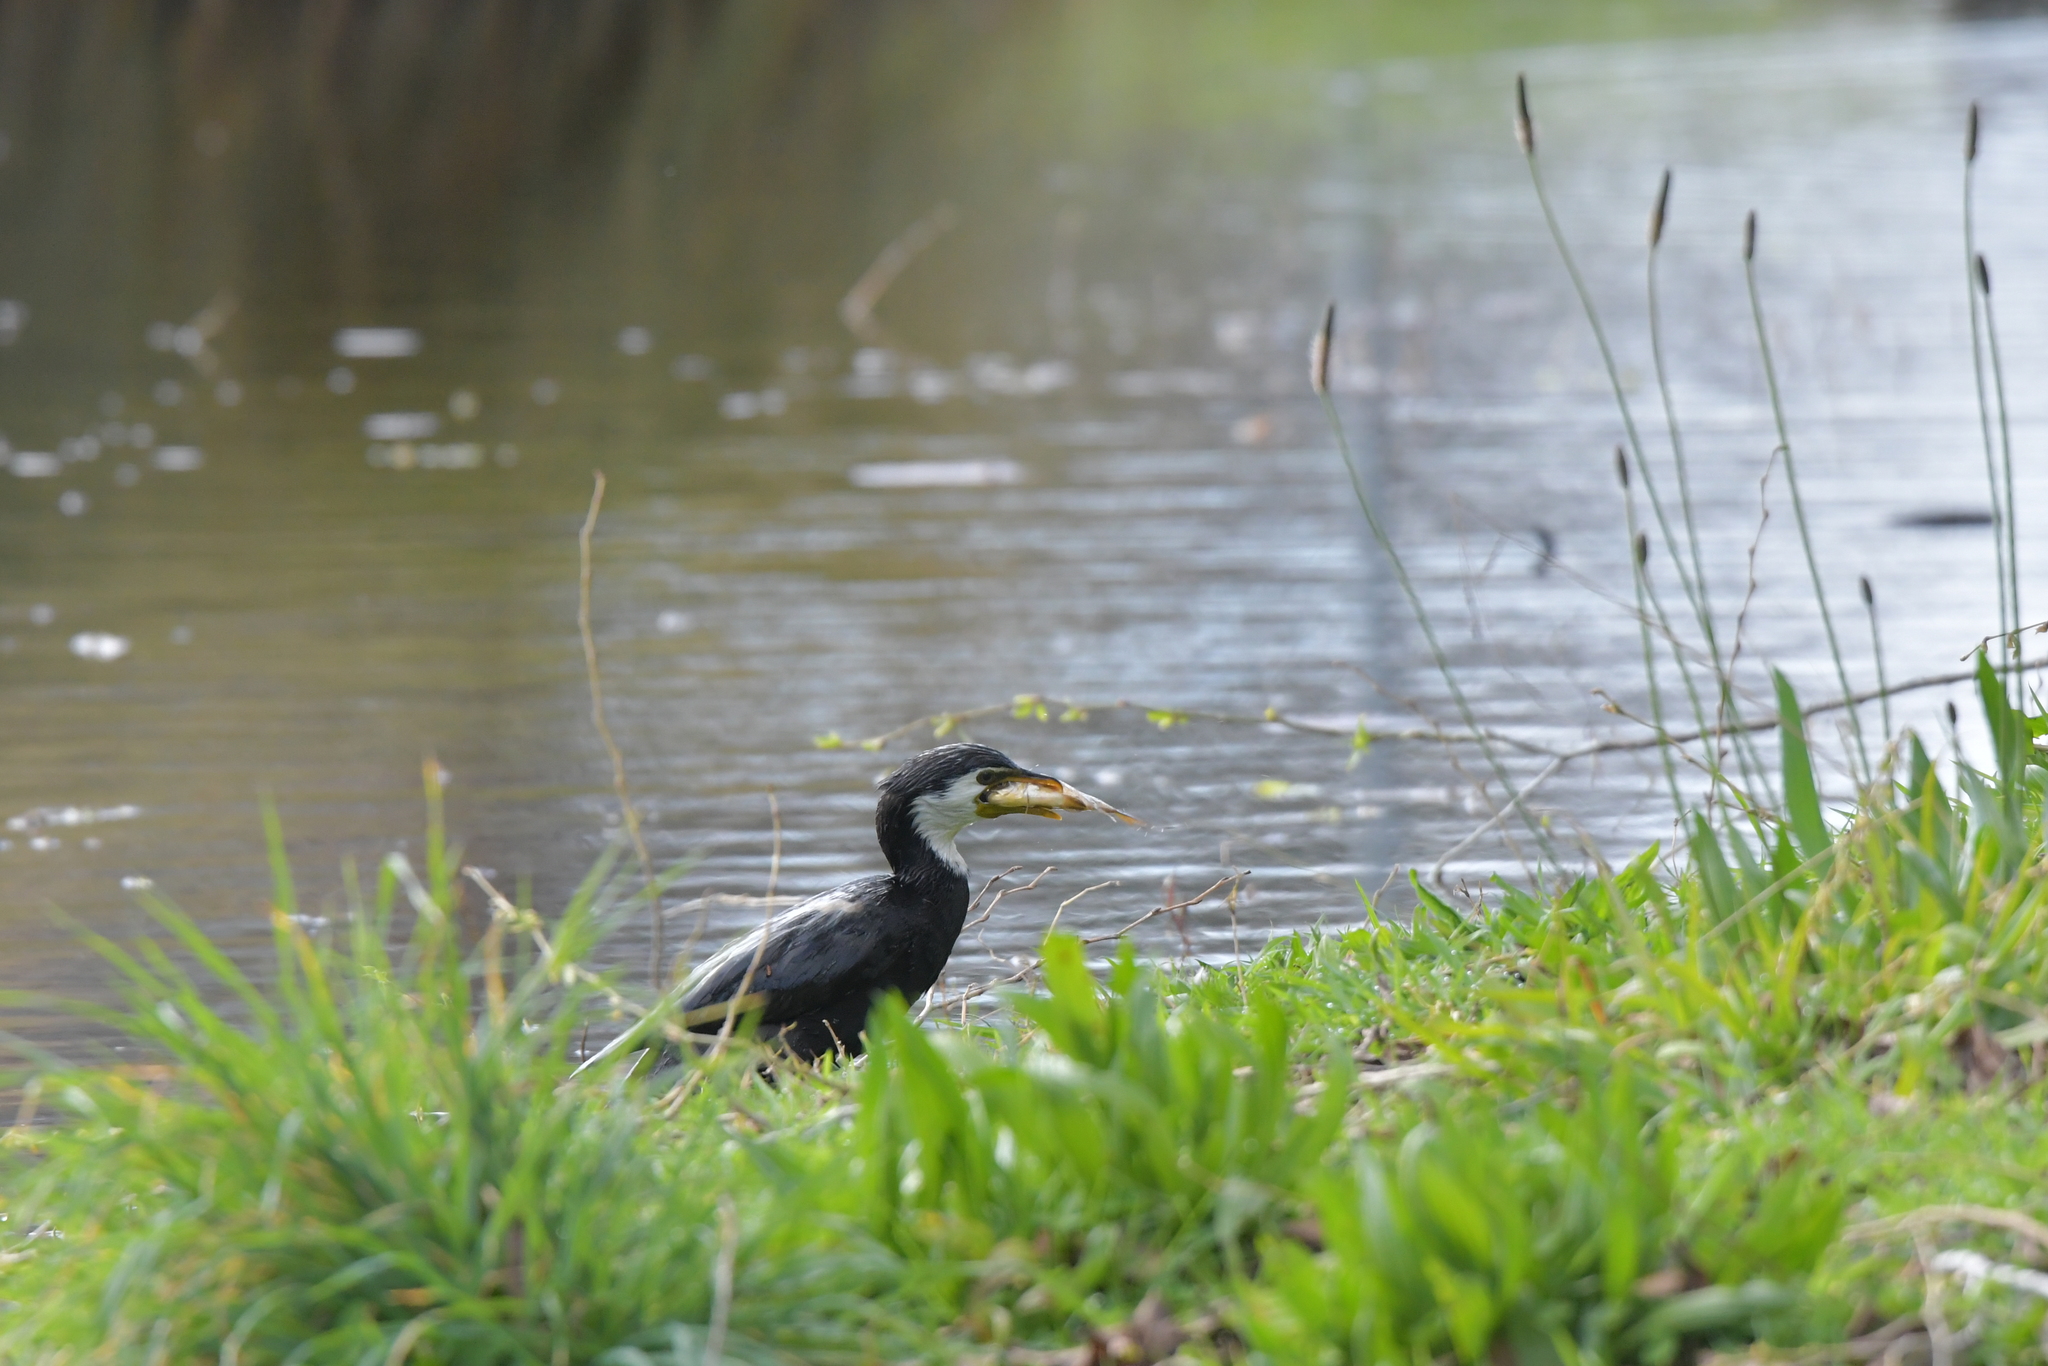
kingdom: Animalia
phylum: Chordata
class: Aves
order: Suliformes
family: Phalacrocoracidae
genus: Microcarbo
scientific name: Microcarbo melanoleucos
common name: Little pied cormorant
